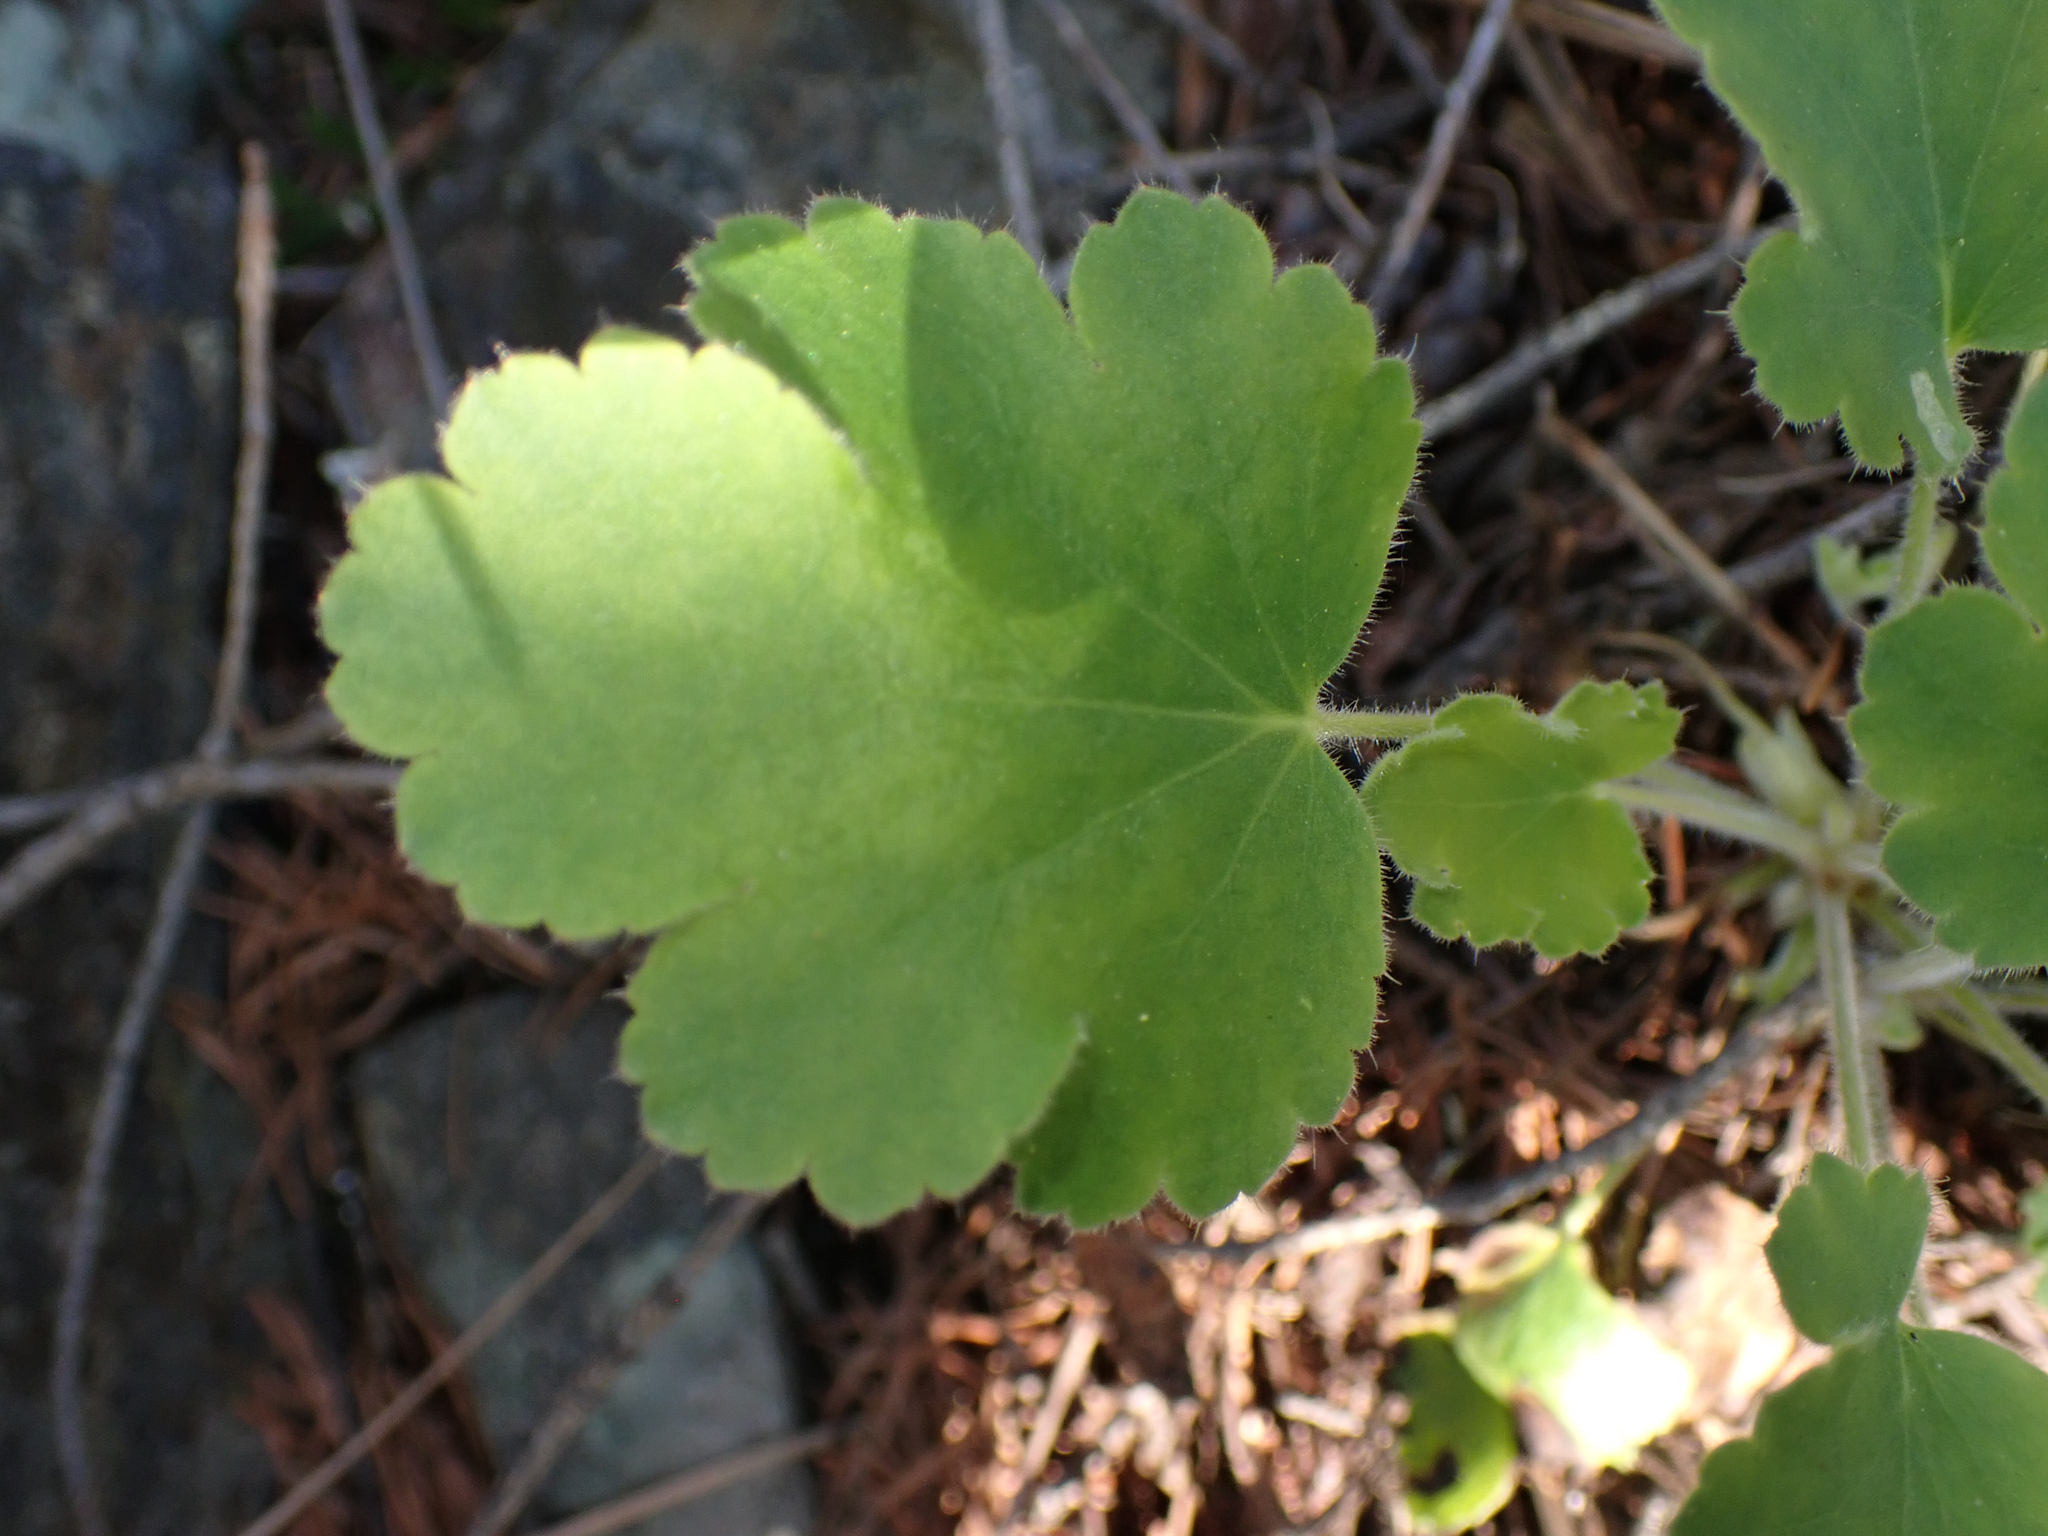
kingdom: Plantae
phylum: Tracheophyta
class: Magnoliopsida
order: Saxifragales
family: Saxifragaceae
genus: Heuchera
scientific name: Heuchera cylindrica
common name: Mat alumroot
